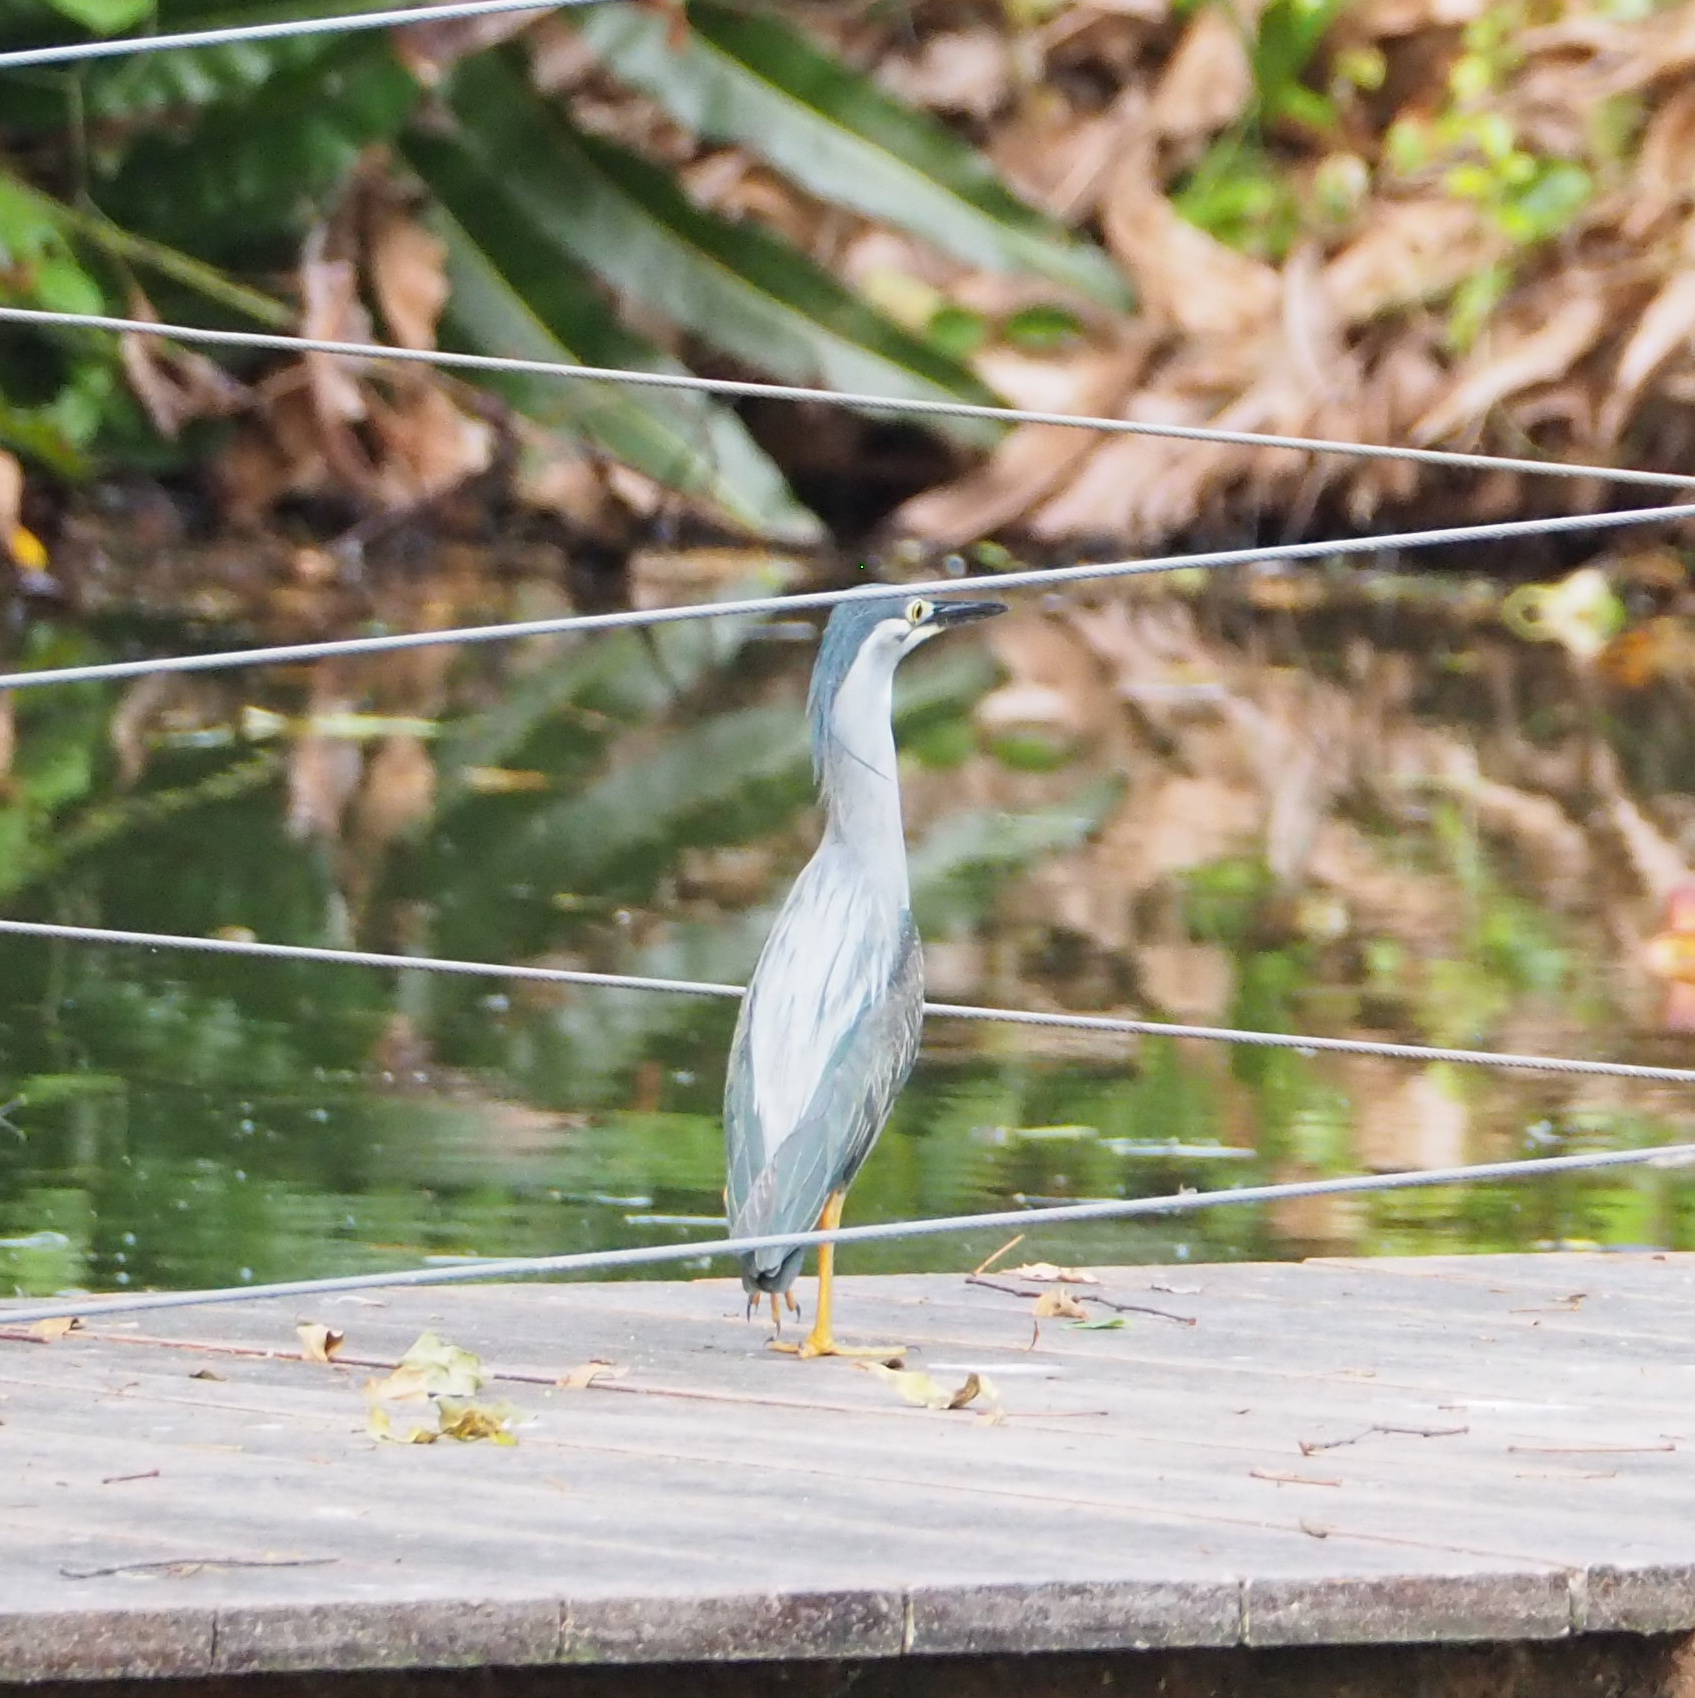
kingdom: Animalia
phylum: Chordata
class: Aves
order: Pelecaniformes
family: Ardeidae
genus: Butorides
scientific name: Butorides striata
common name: Striated heron
